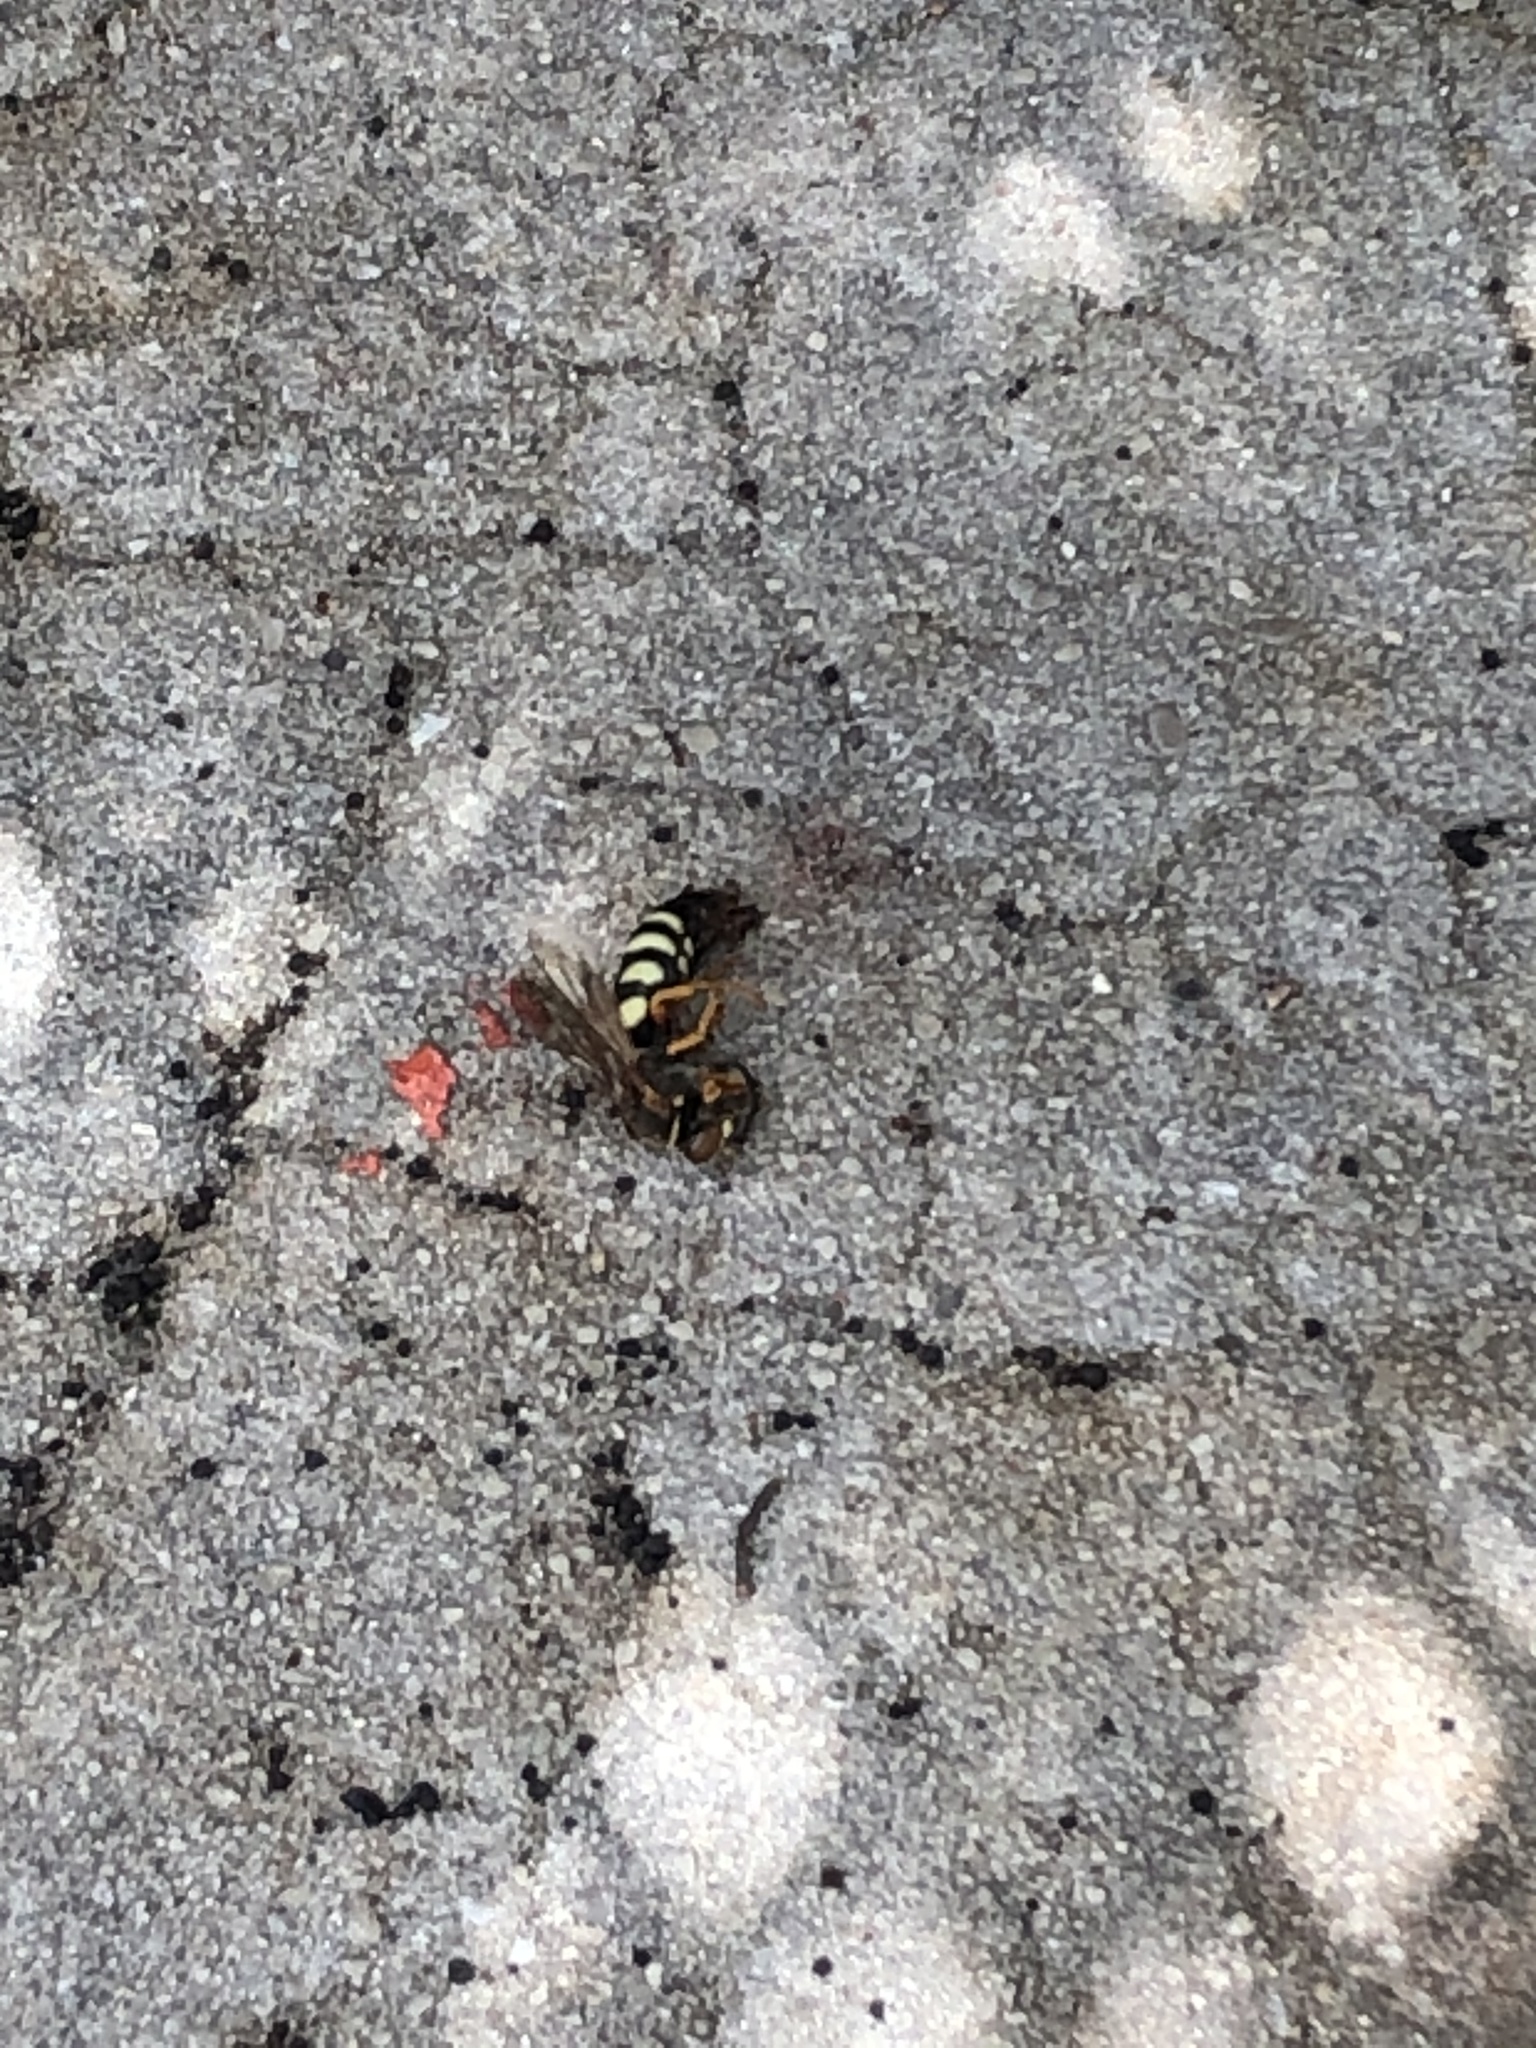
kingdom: Animalia
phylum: Arthropoda
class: Insecta
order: Hymenoptera
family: Crabronidae
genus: Stizus
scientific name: Stizus brevipennis
